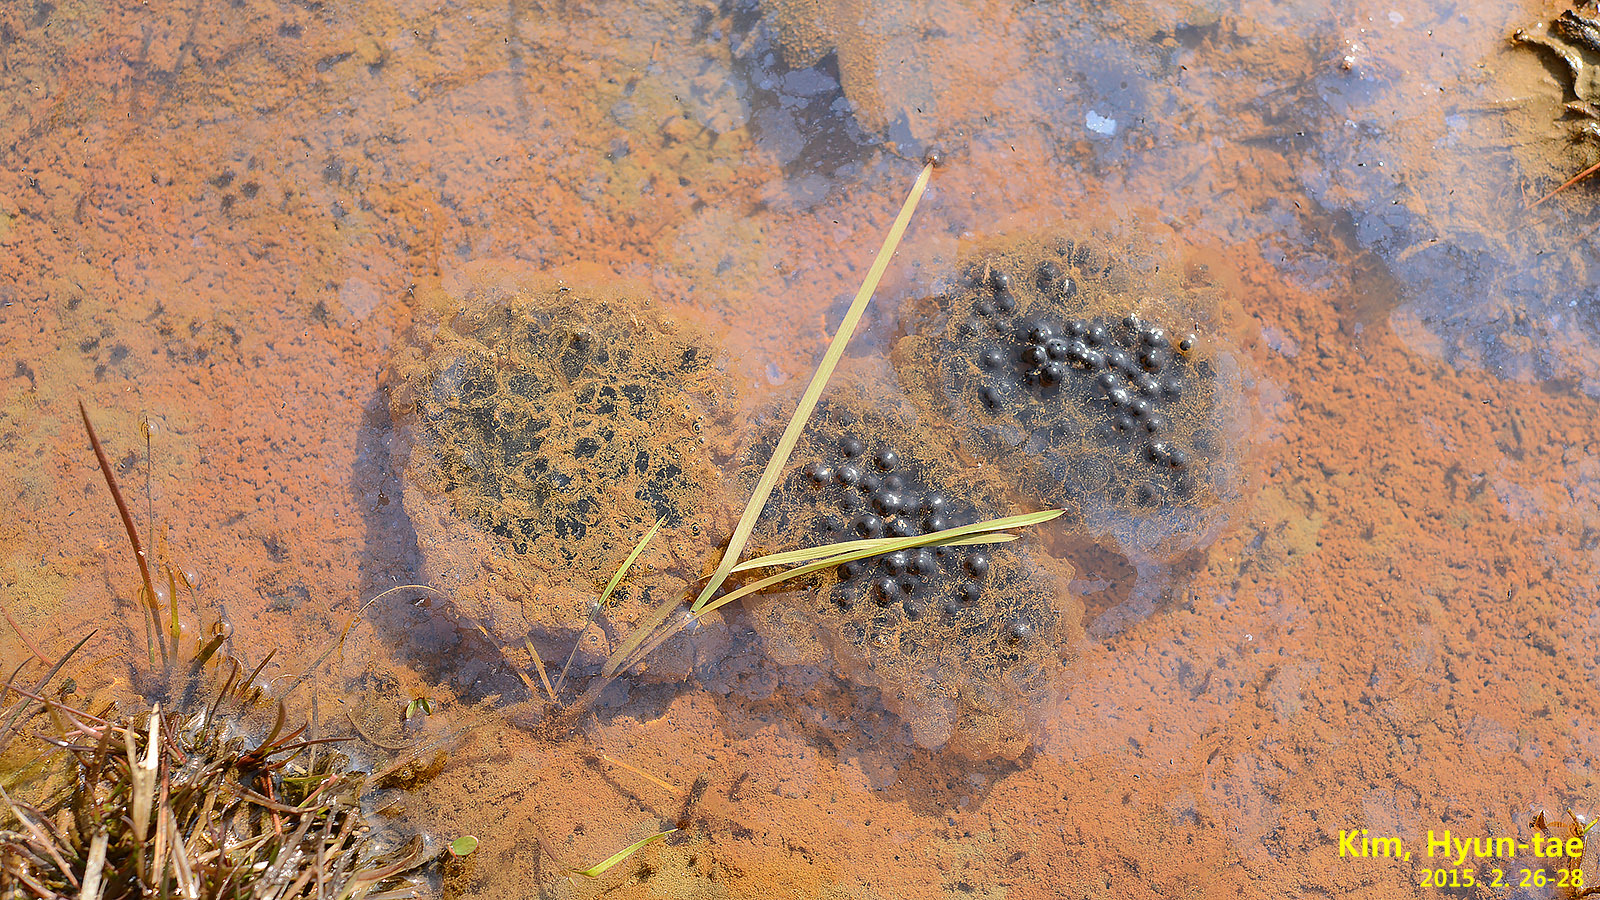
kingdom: Animalia
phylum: Chordata
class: Amphibia
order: Anura
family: Ranidae
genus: Rana
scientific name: Rana coreana
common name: Korean brown frog
